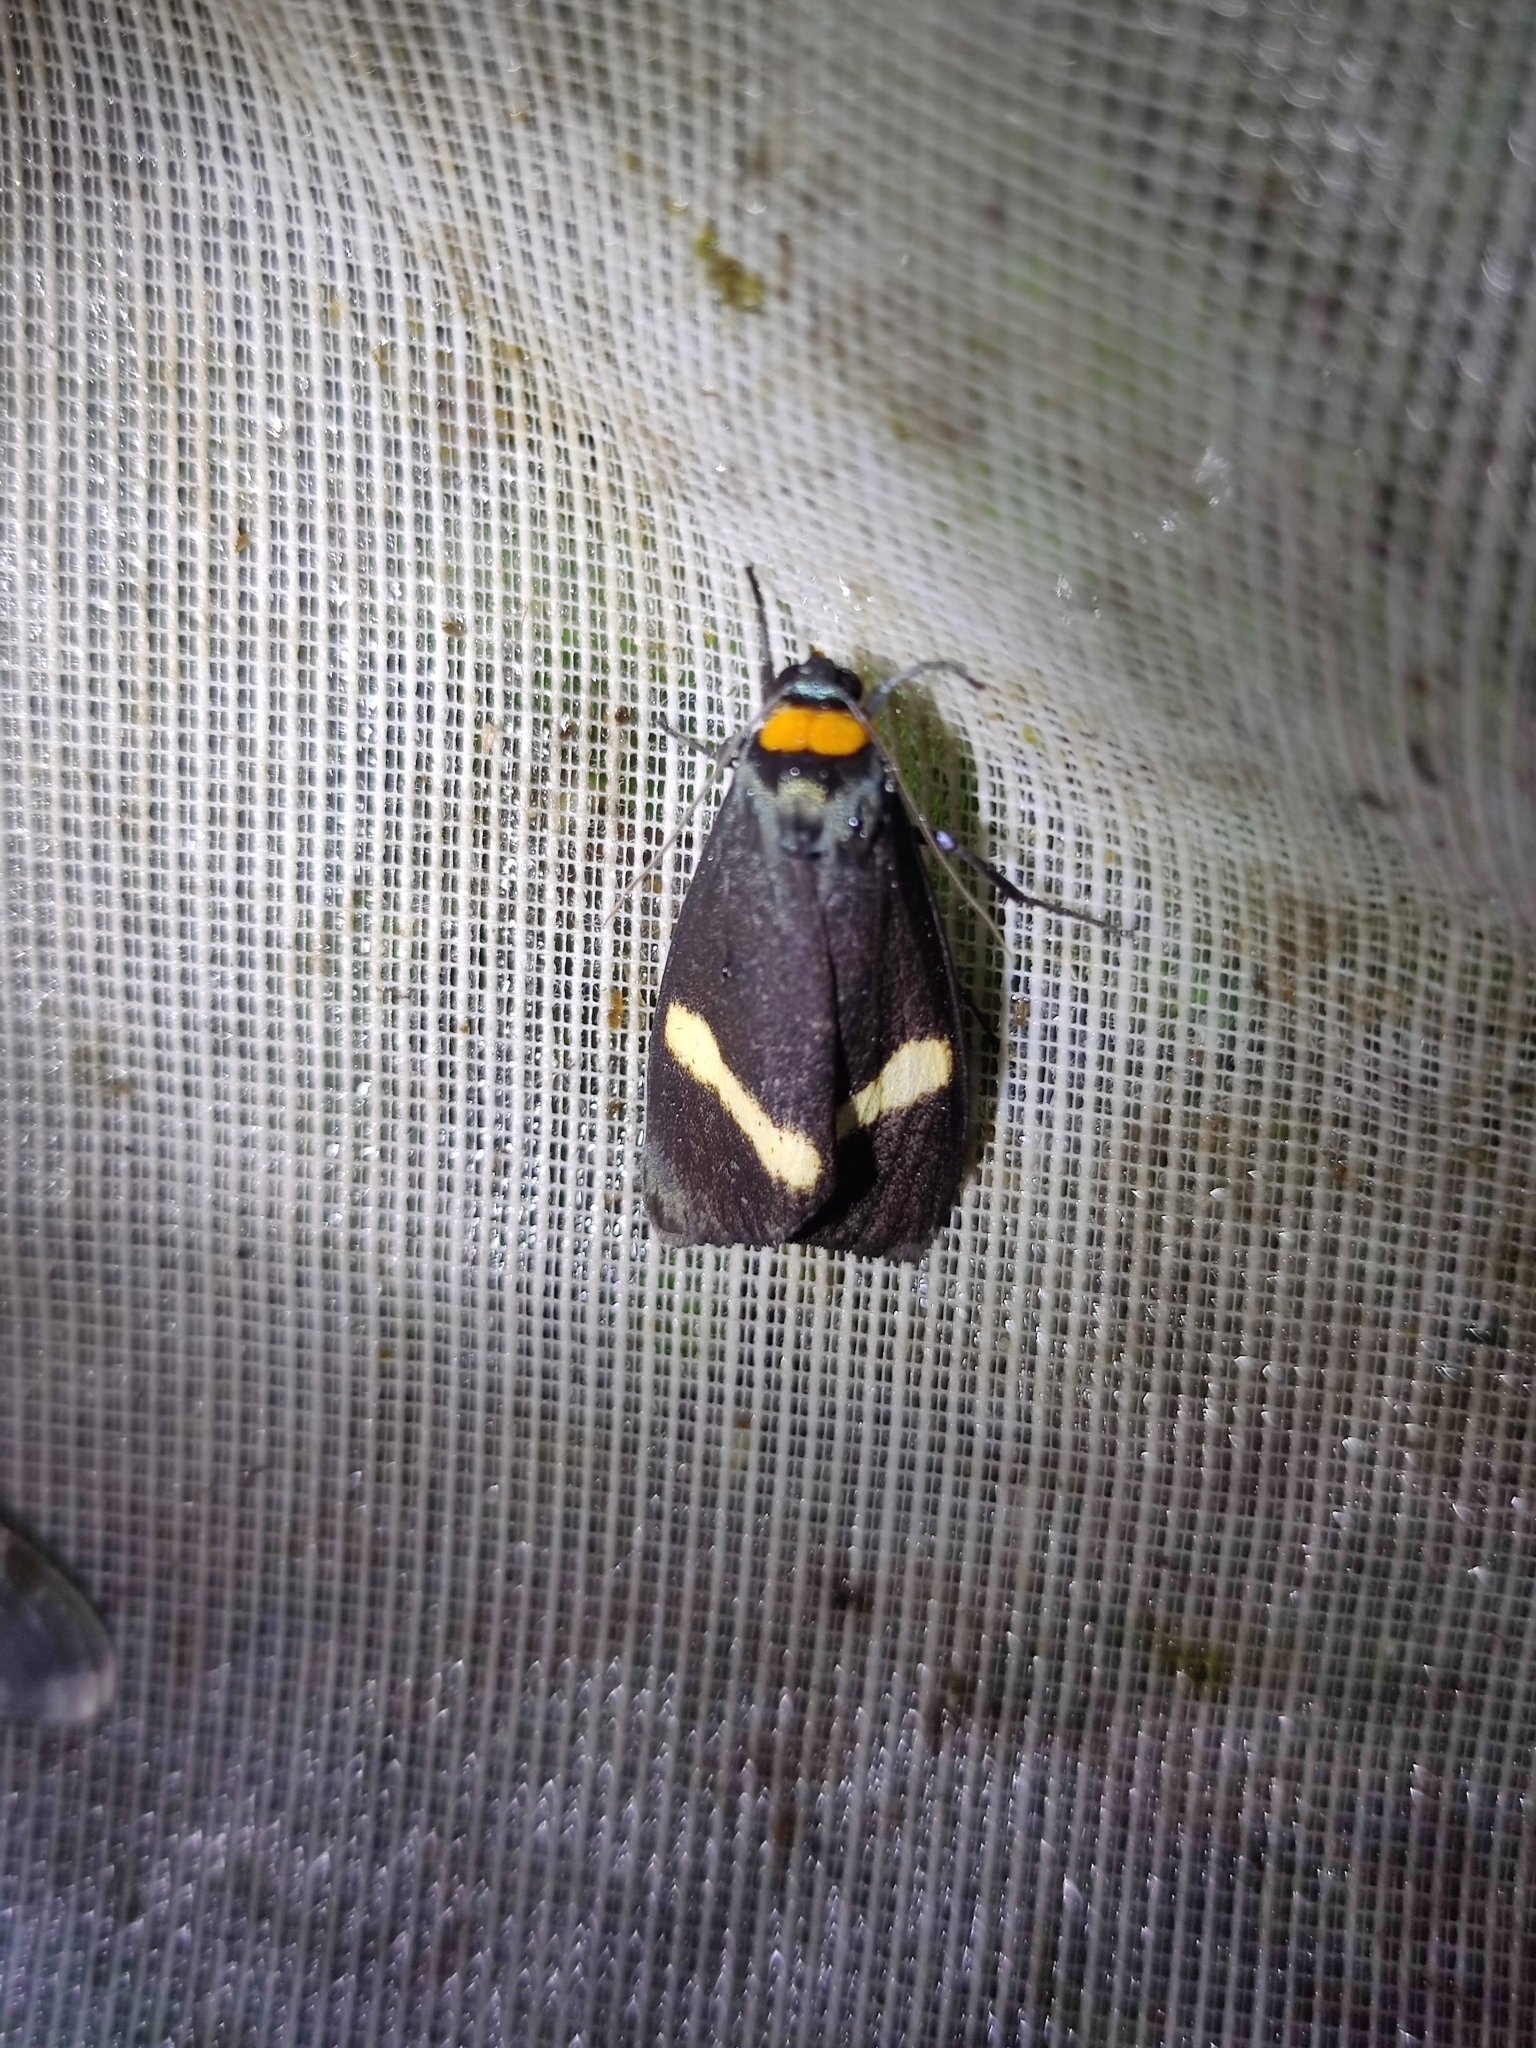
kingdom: Animalia
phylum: Arthropoda
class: Insecta
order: Lepidoptera
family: Erebidae
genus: Macrobrochis
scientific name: Macrobrochis albifascia
